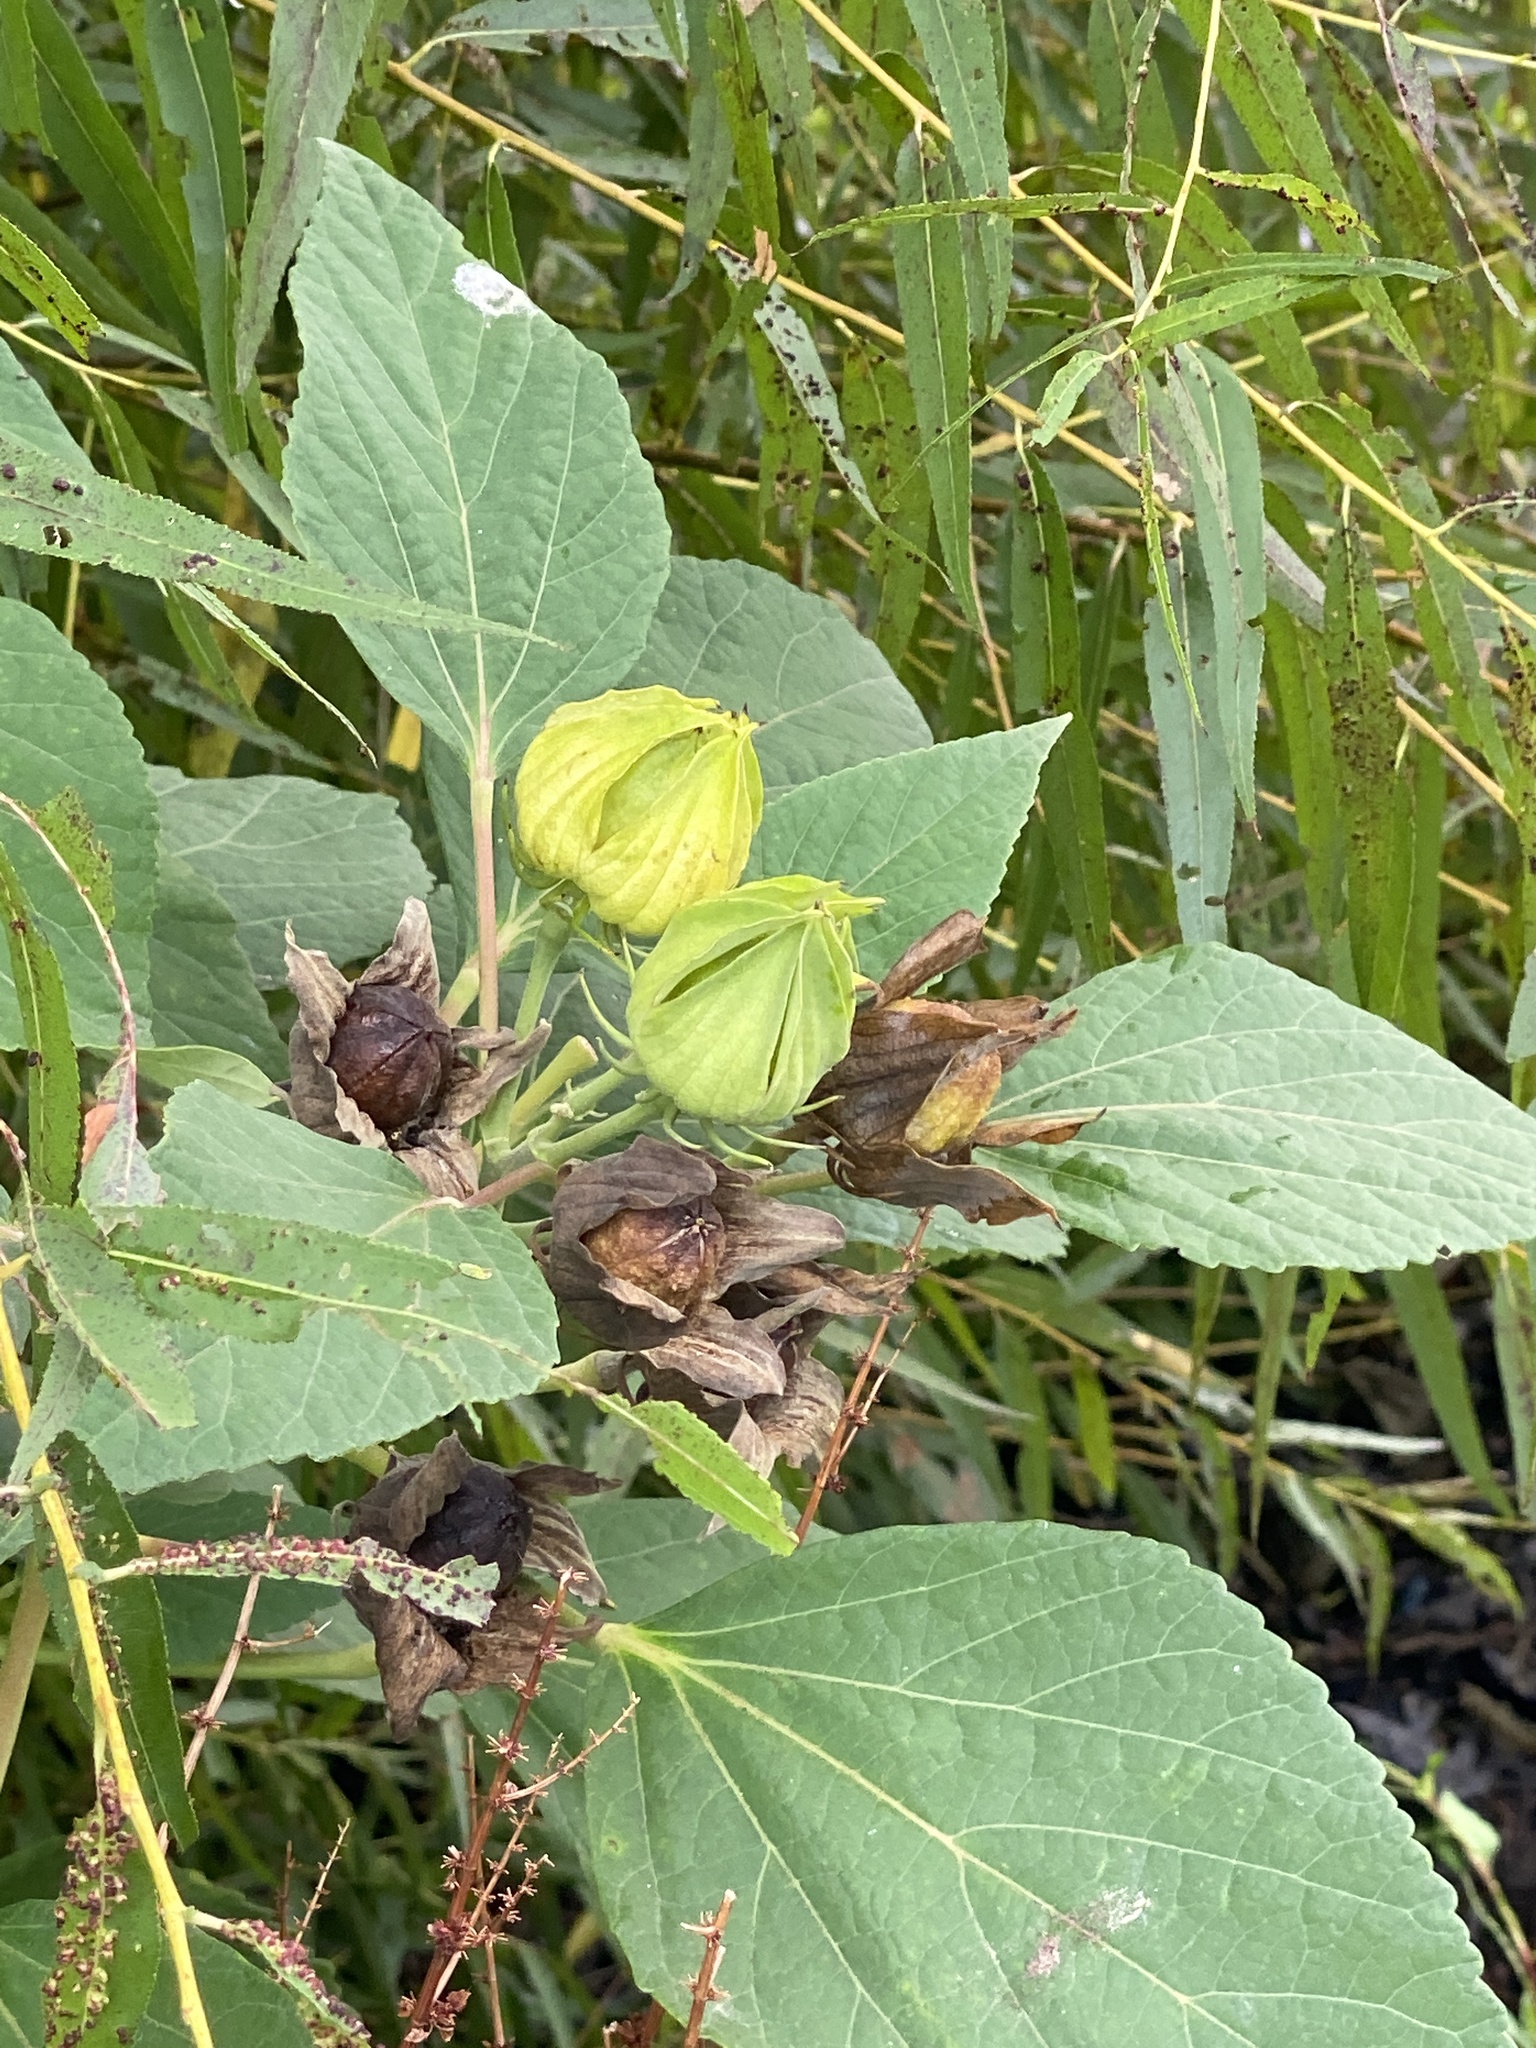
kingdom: Plantae
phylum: Tracheophyta
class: Magnoliopsida
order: Malvales
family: Malvaceae
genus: Hibiscus
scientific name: Hibiscus moscheutos
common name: Common rose-mallow
